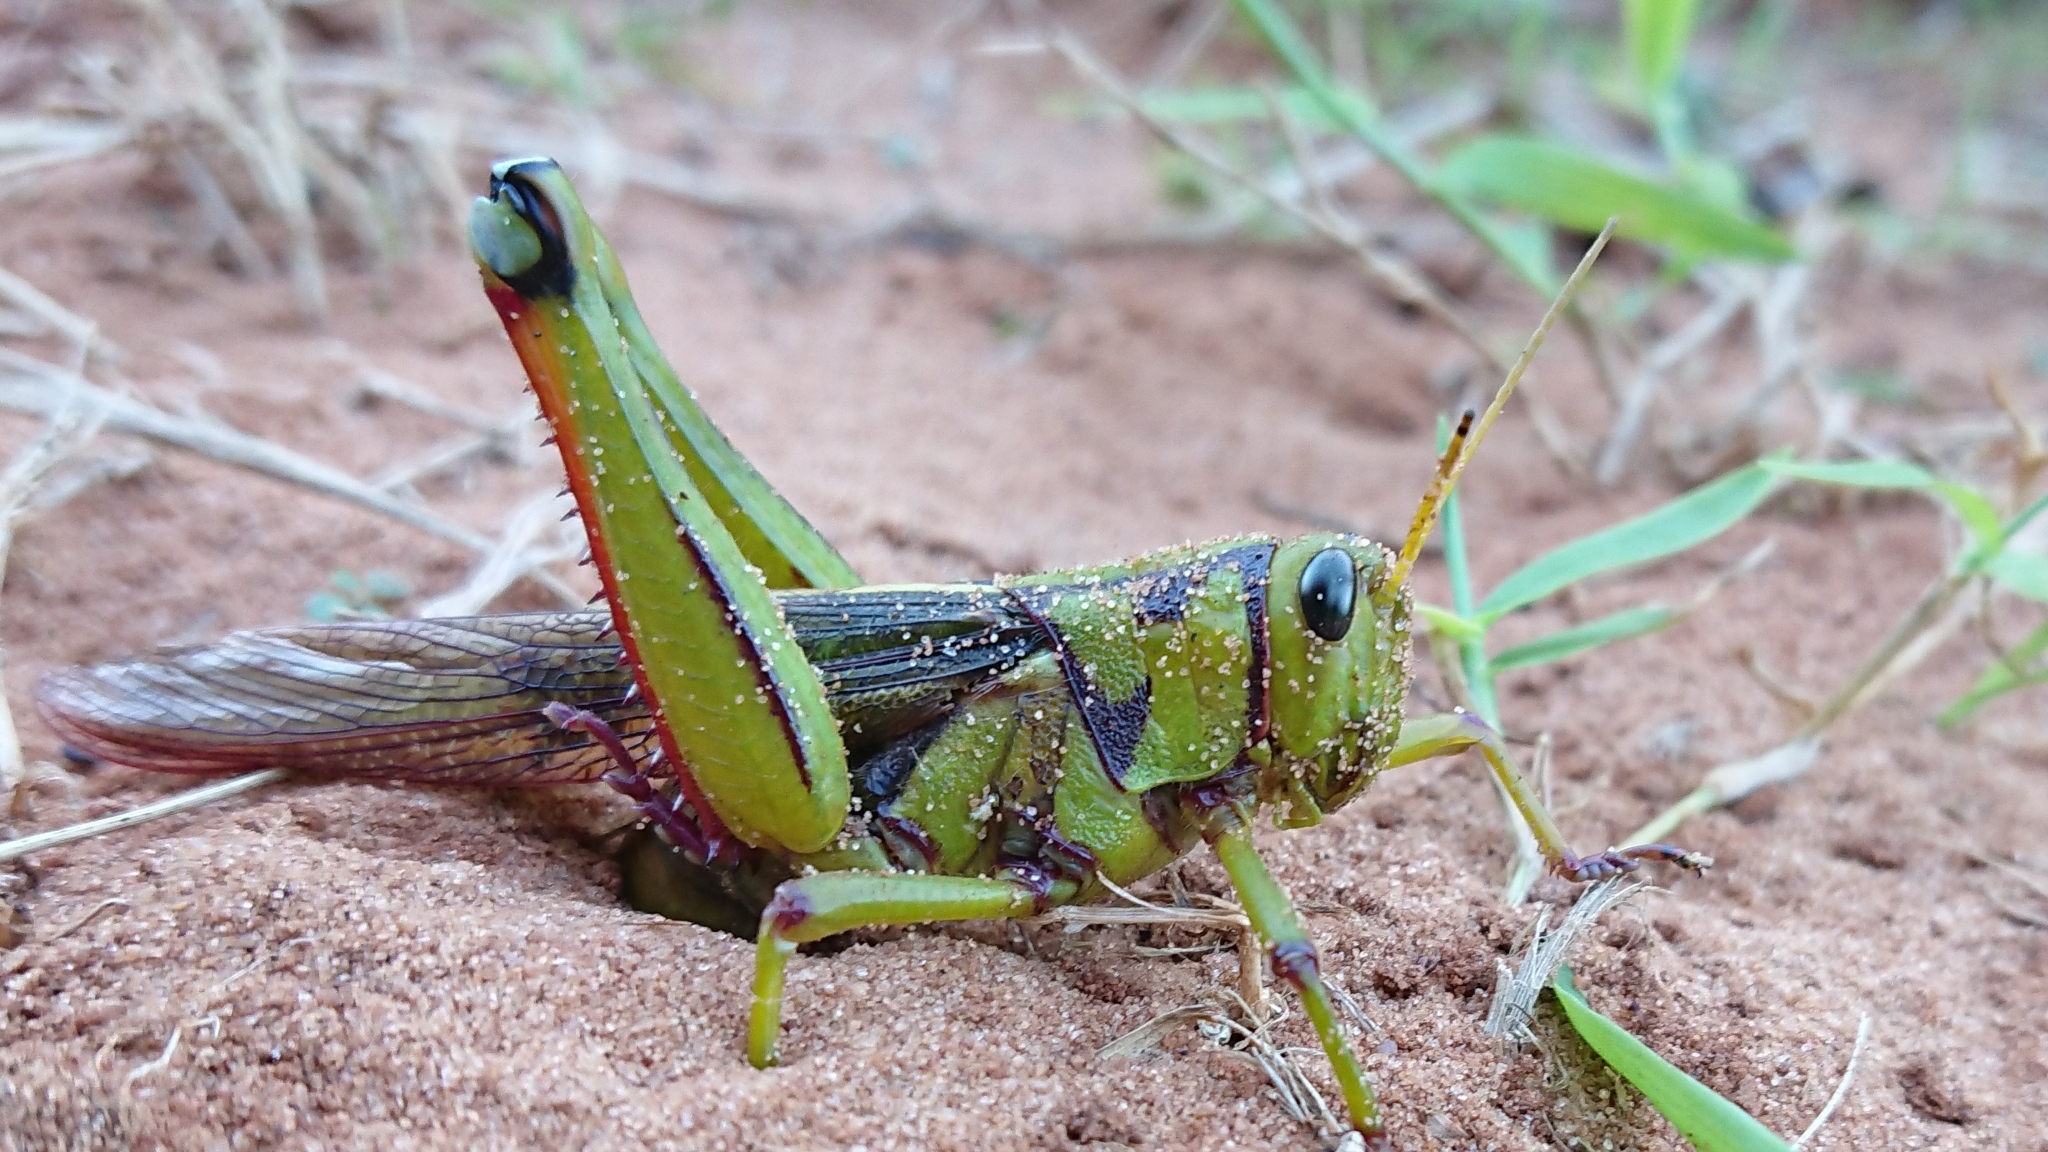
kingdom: Animalia
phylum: Arthropoda
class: Insecta
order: Orthoptera
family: Acrididae
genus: Kraussaria
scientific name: Kraussaria prasina
